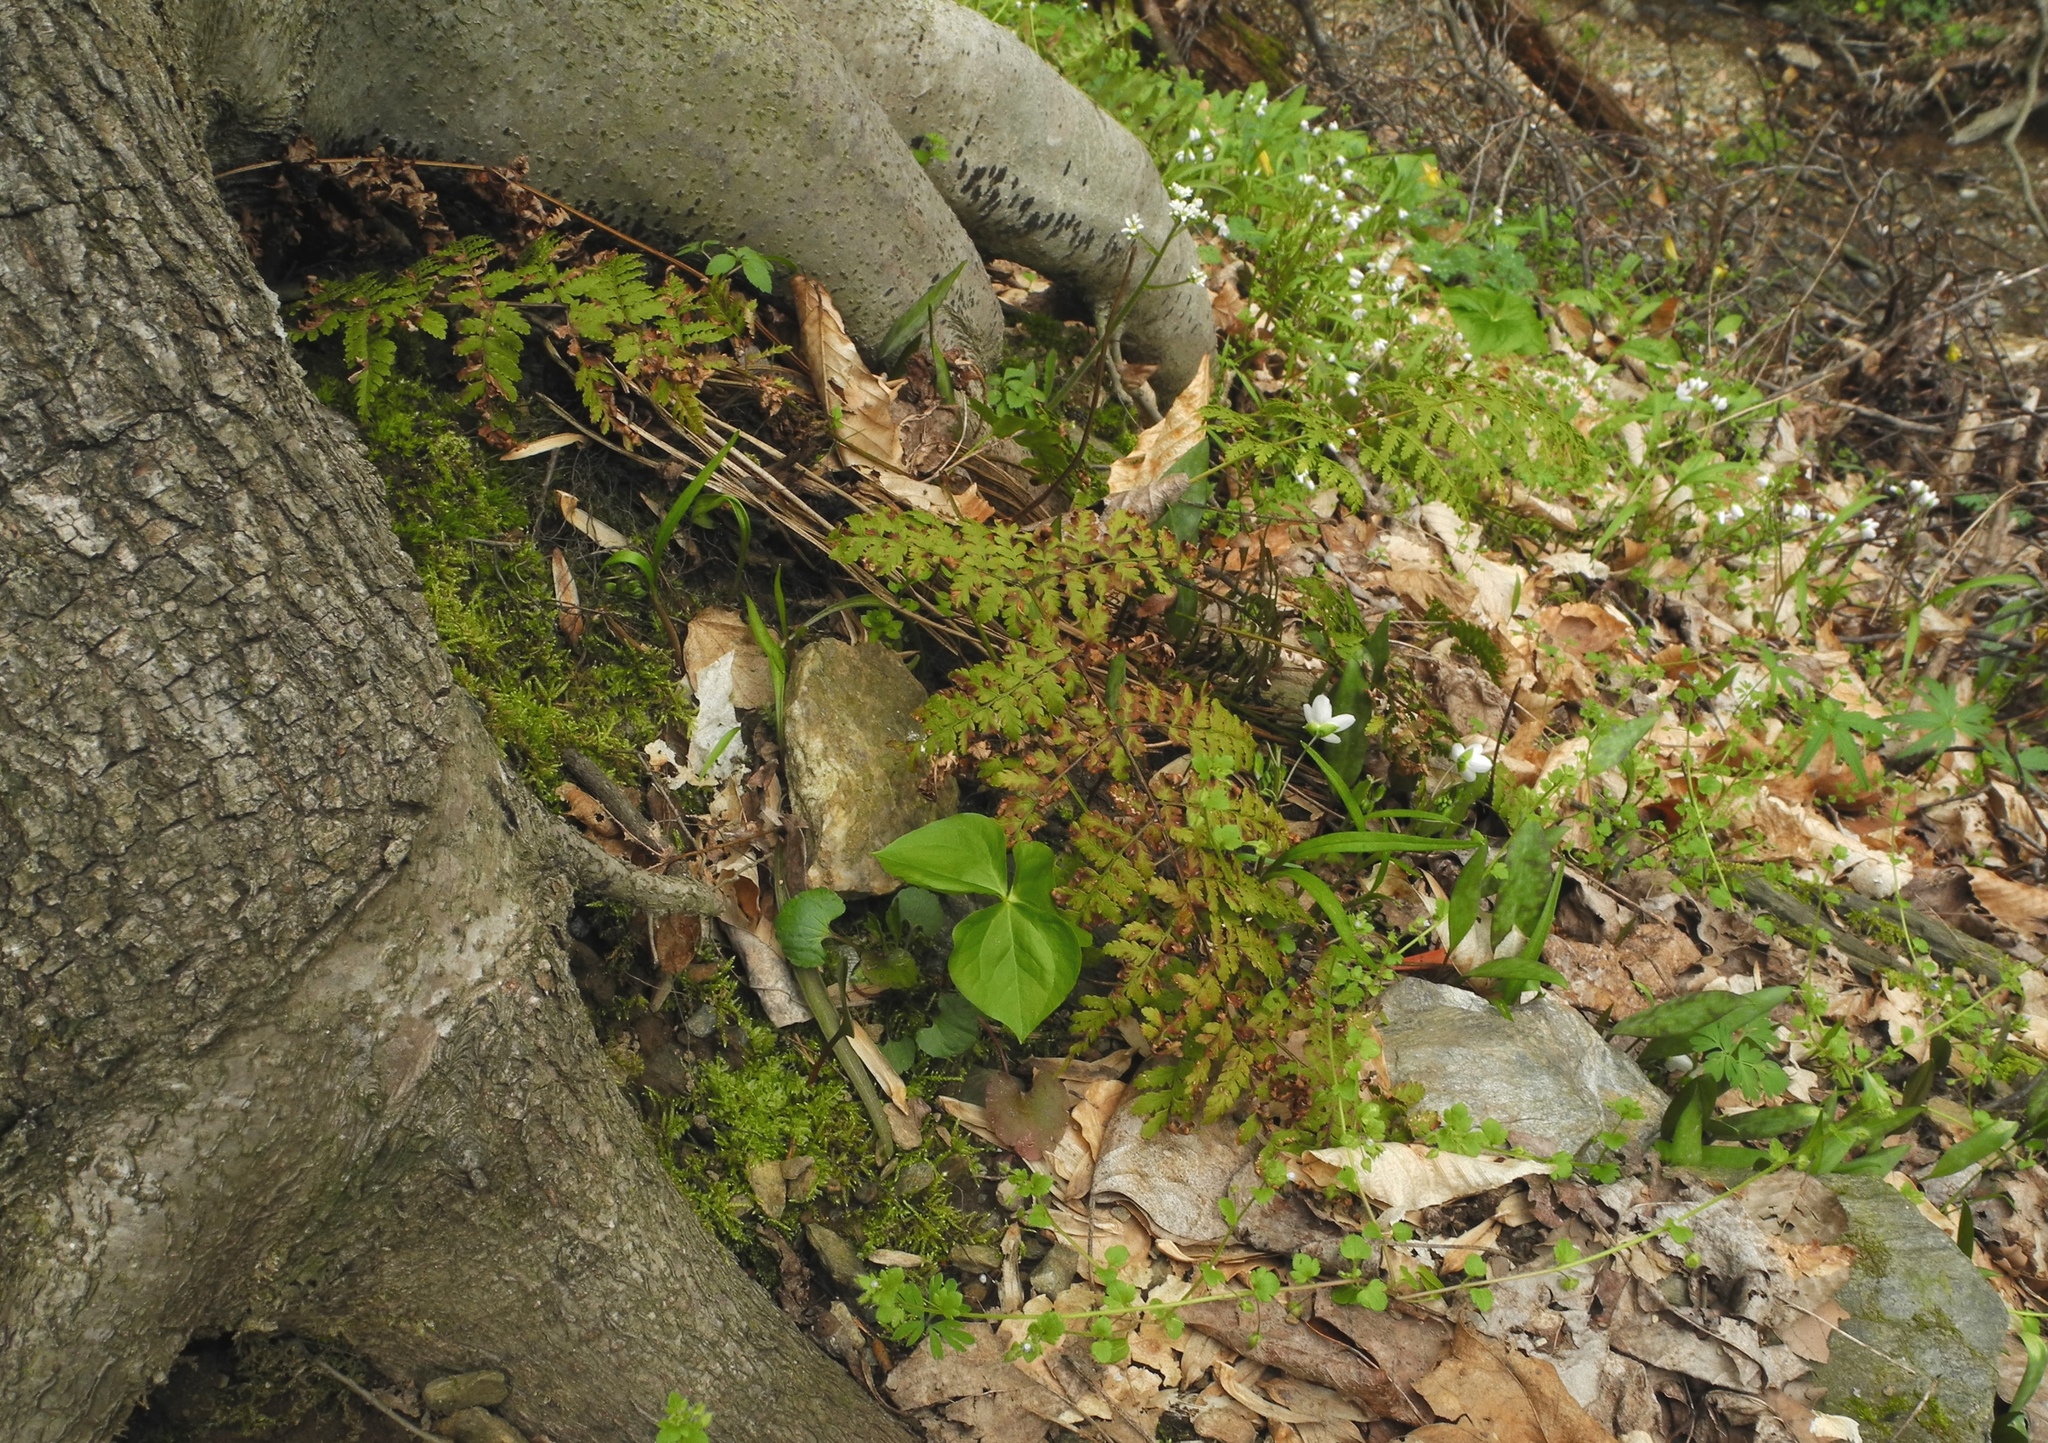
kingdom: Plantae
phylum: Tracheophyta
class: Polypodiopsida
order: Polypodiales
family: Dryopteridaceae
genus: Dryopteris
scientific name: Dryopteris intermedia
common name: Evergreen wood fern
